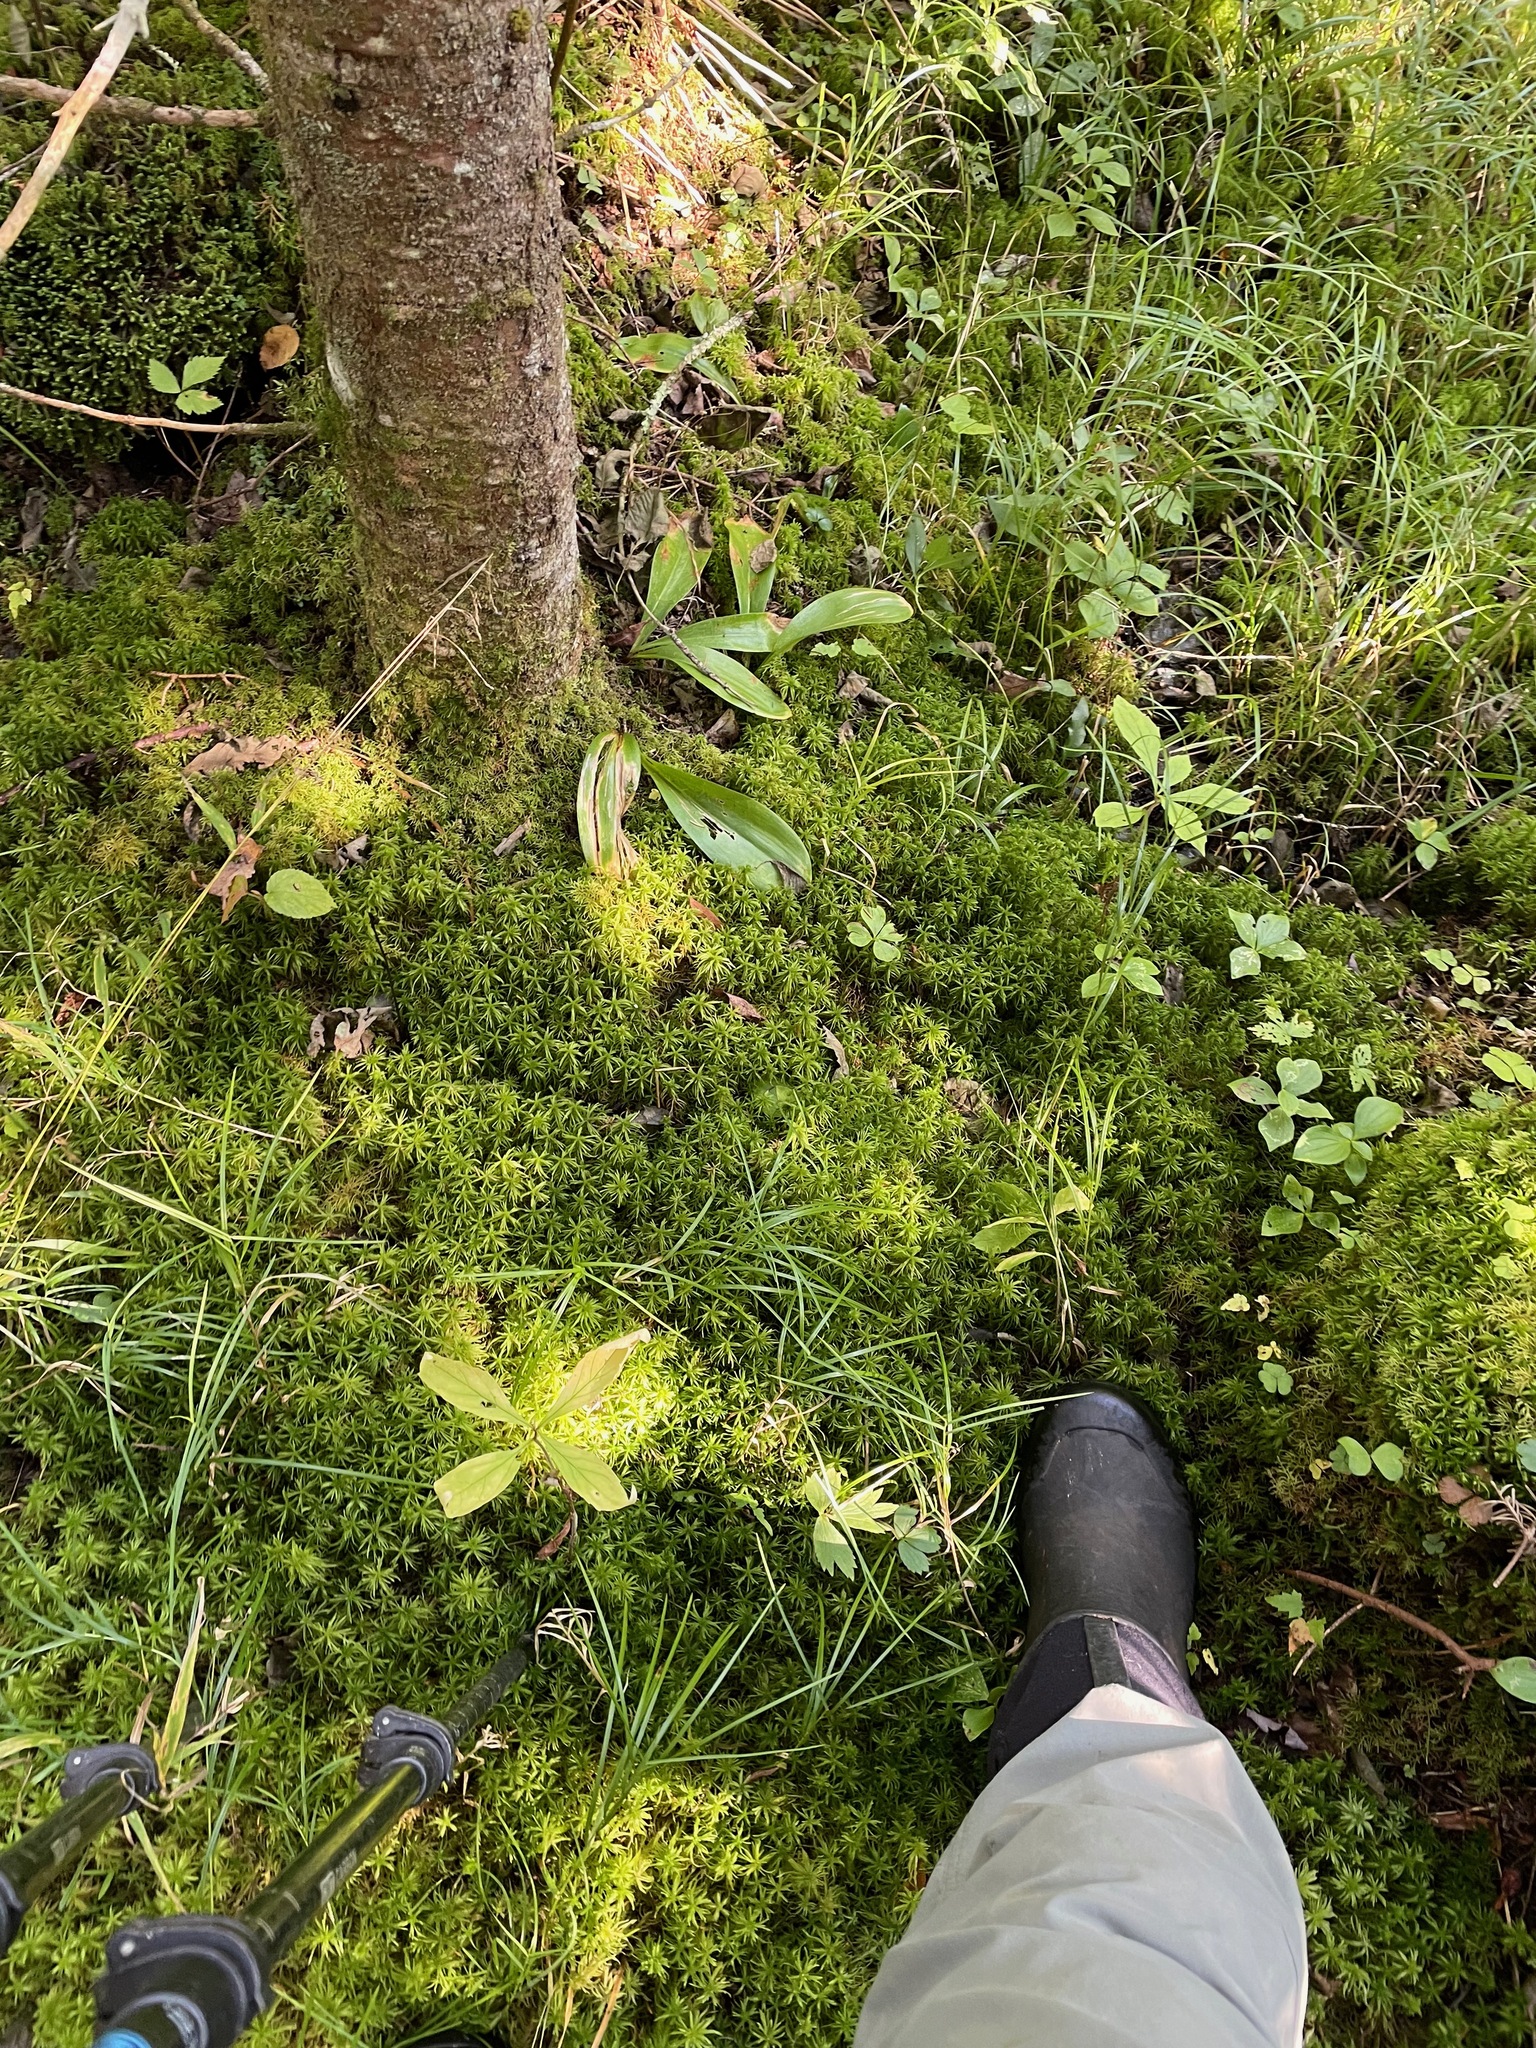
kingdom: Plantae
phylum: Tracheophyta
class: Liliopsida
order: Liliales
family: Liliaceae
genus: Clintonia
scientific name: Clintonia borealis
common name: Yellow clintonia
